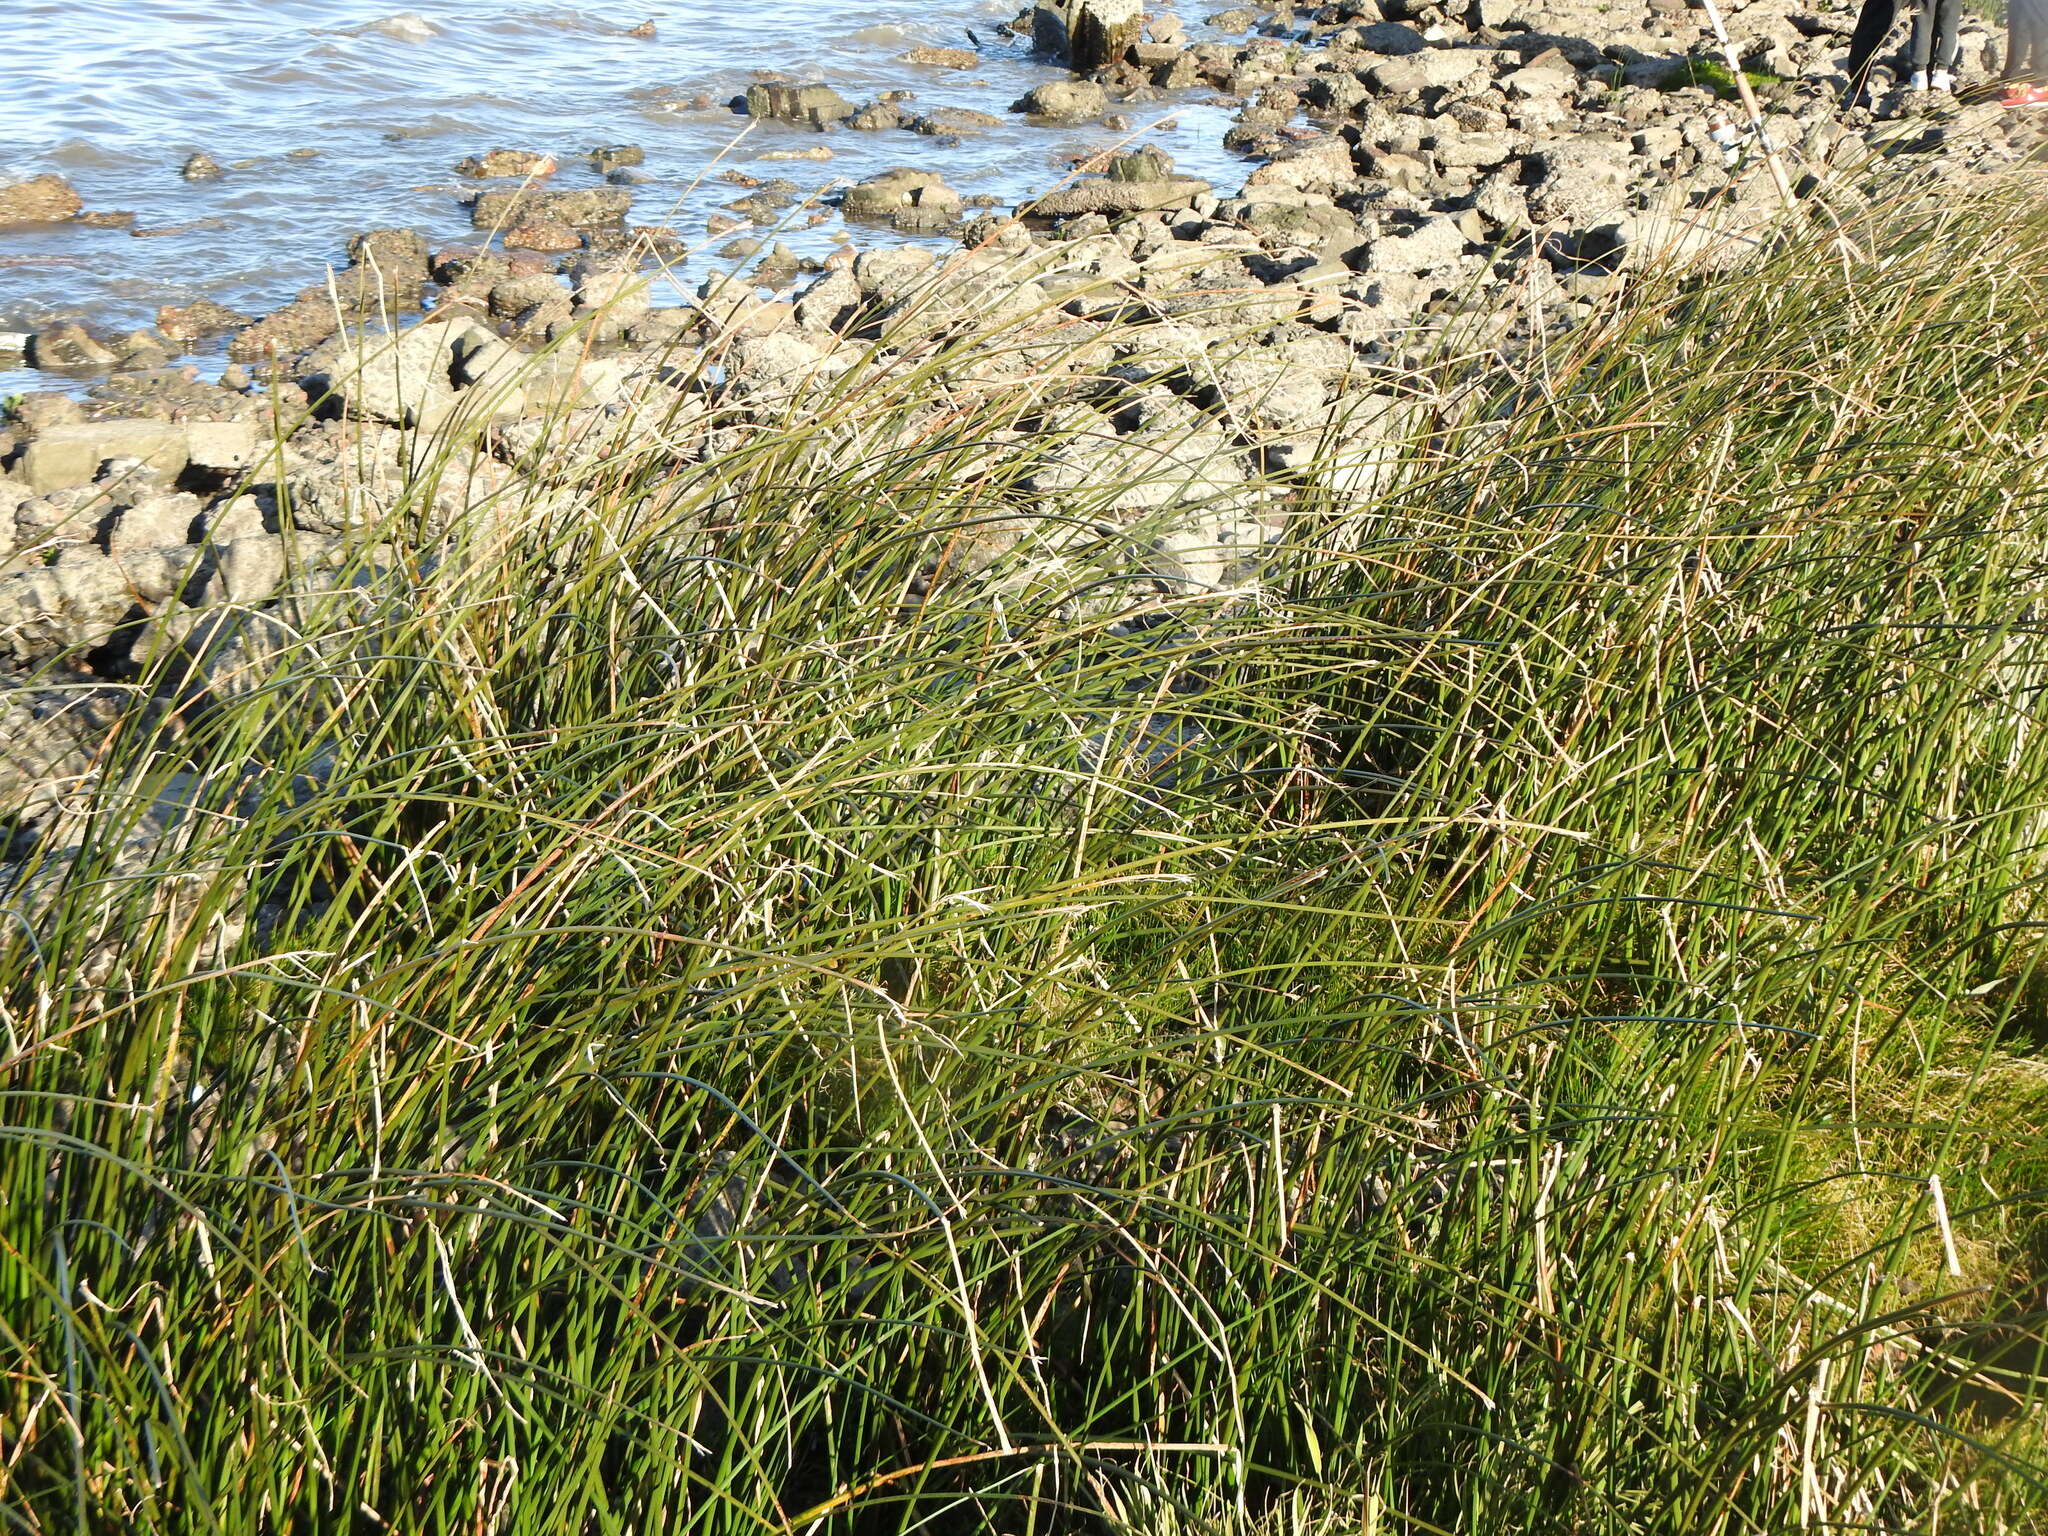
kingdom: Plantae
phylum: Tracheophyta
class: Liliopsida
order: Poales
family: Cyperaceae
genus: Schoenoplectus
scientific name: Schoenoplectus californicus
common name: California bulrush
